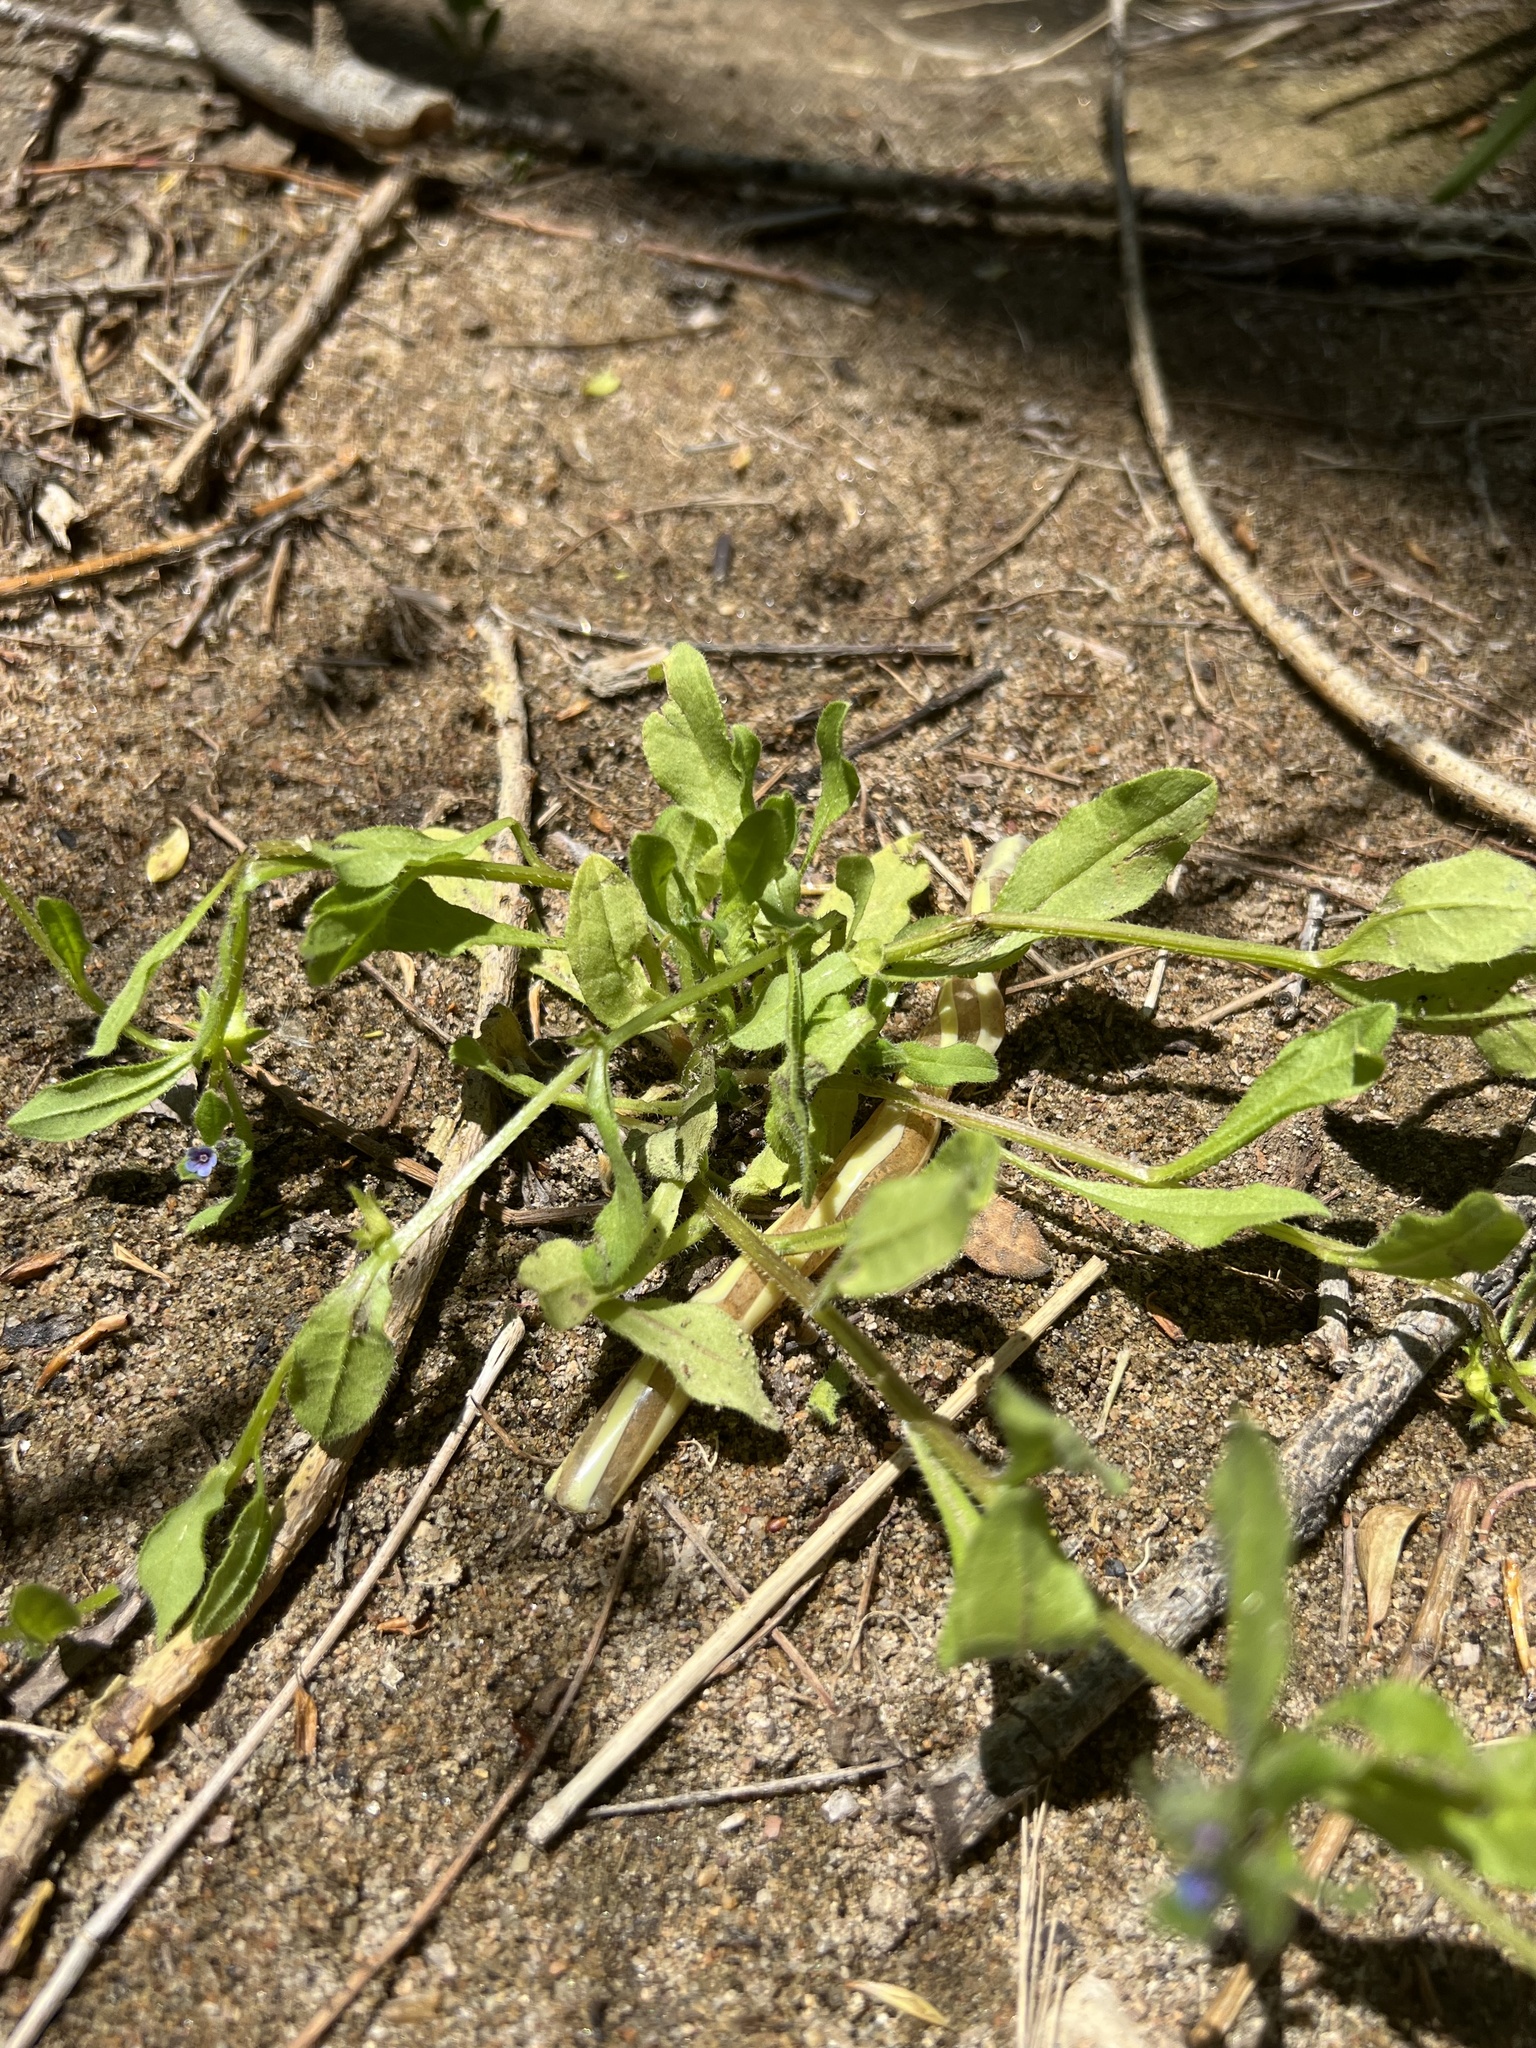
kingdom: Plantae
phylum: Tracheophyta
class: Magnoliopsida
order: Boraginales
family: Boraginaceae
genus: Asperugo
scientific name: Asperugo procumbens
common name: Madwort
